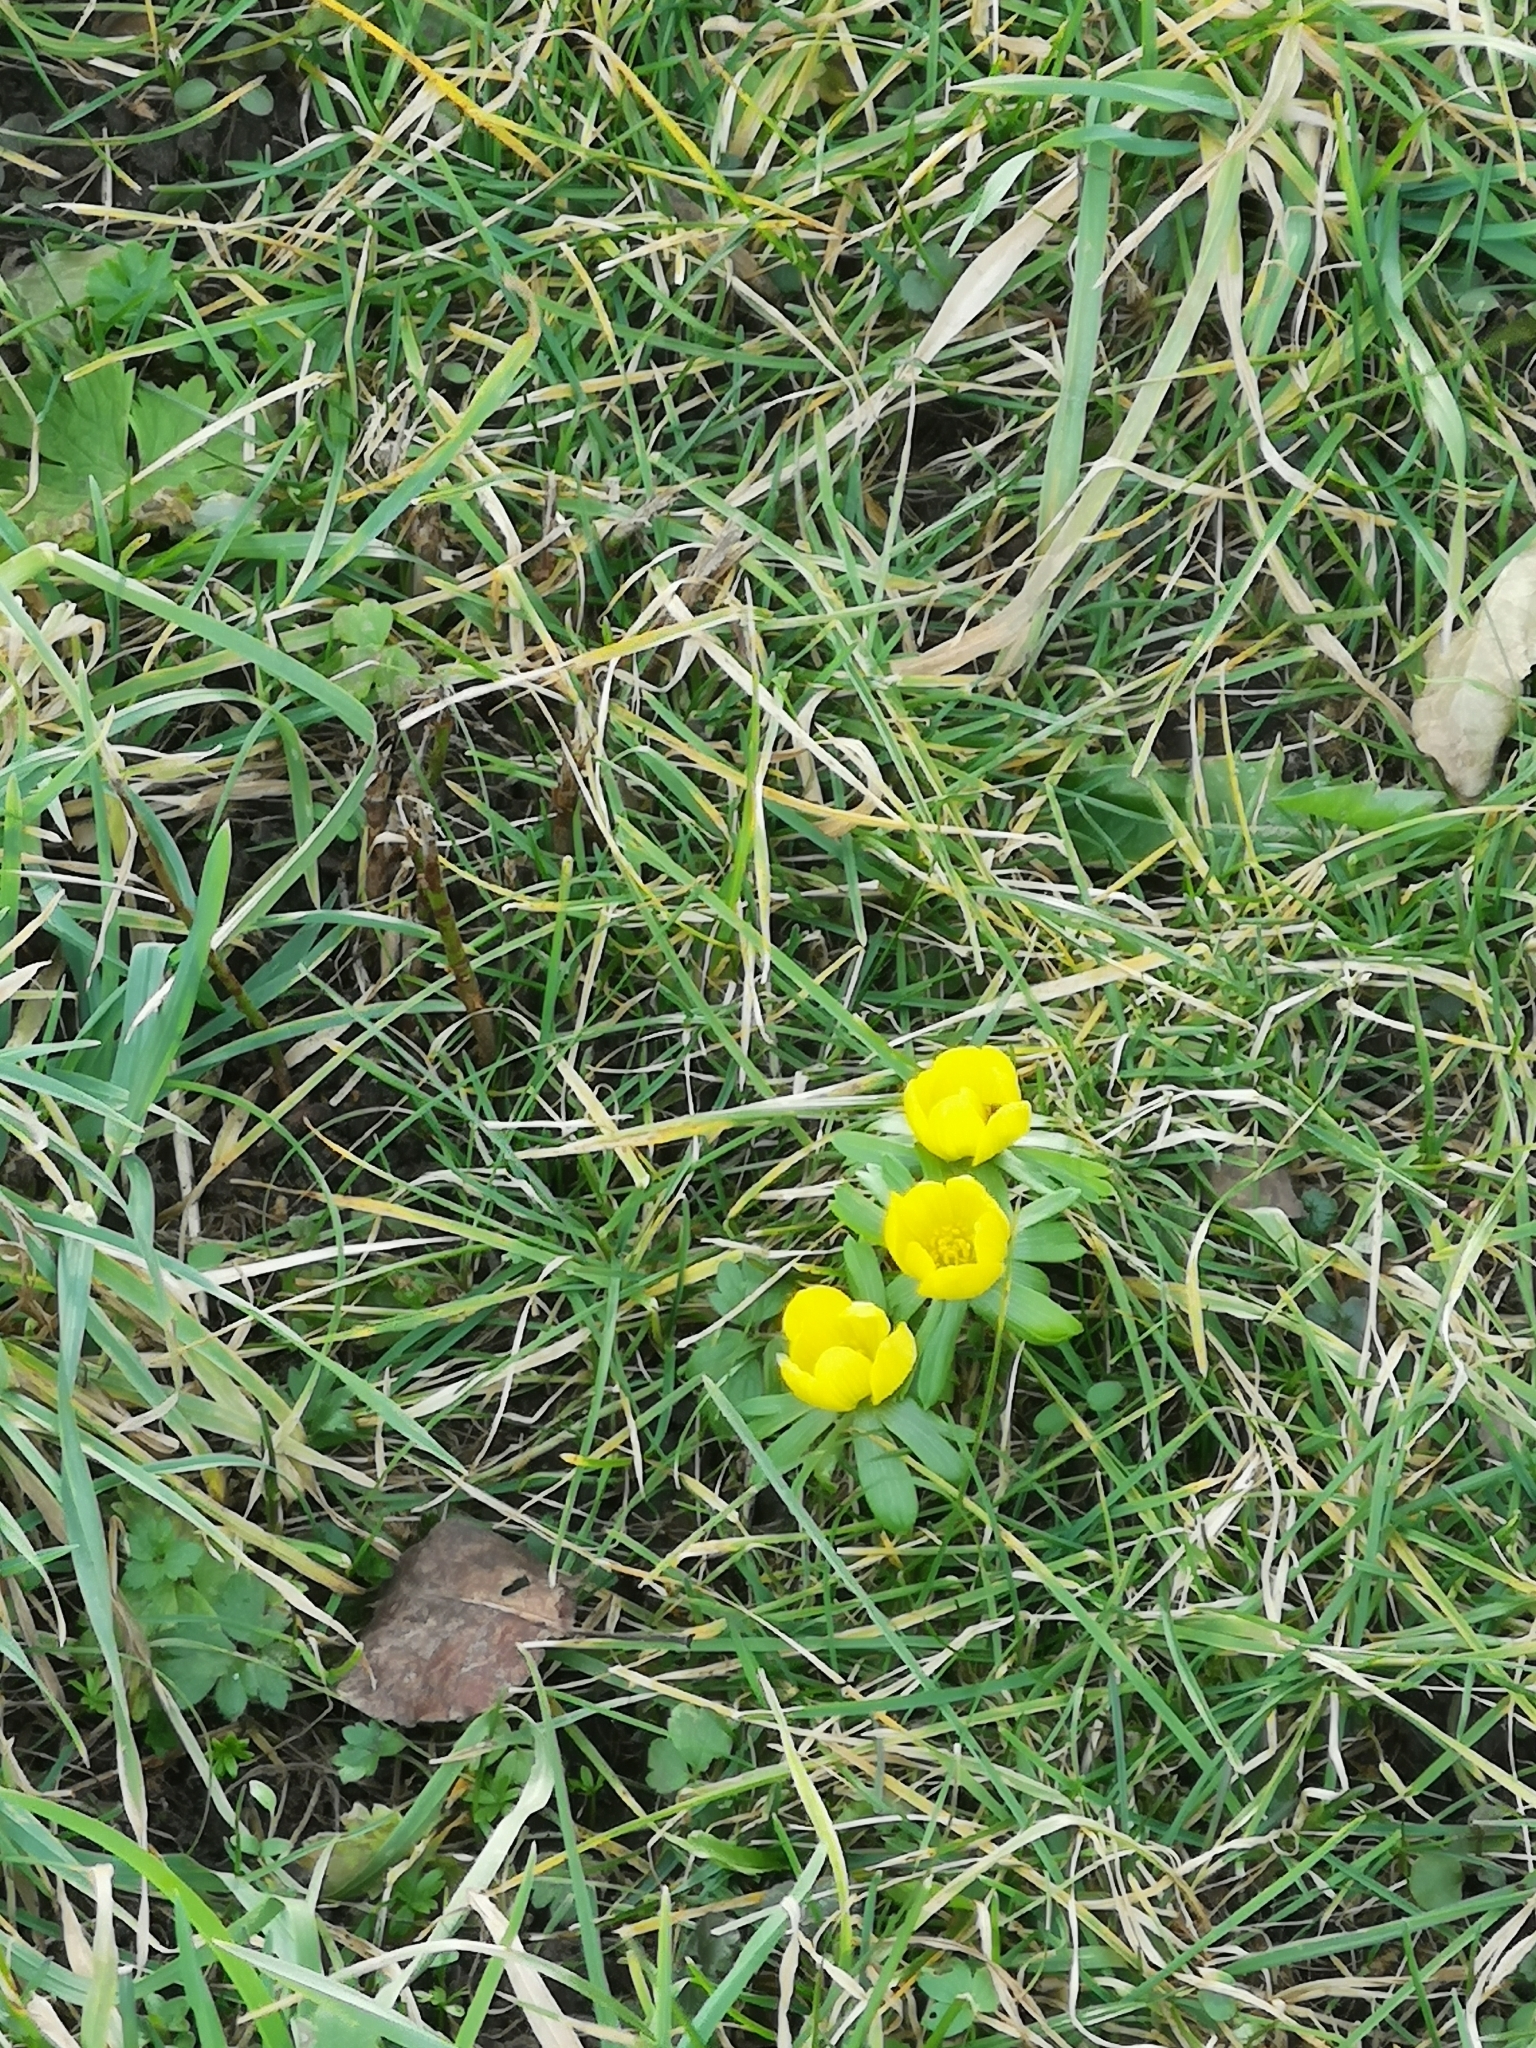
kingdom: Plantae
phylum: Tracheophyta
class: Magnoliopsida
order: Ranunculales
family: Ranunculaceae
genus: Eranthis
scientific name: Eranthis hyemalis
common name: Winter aconite
